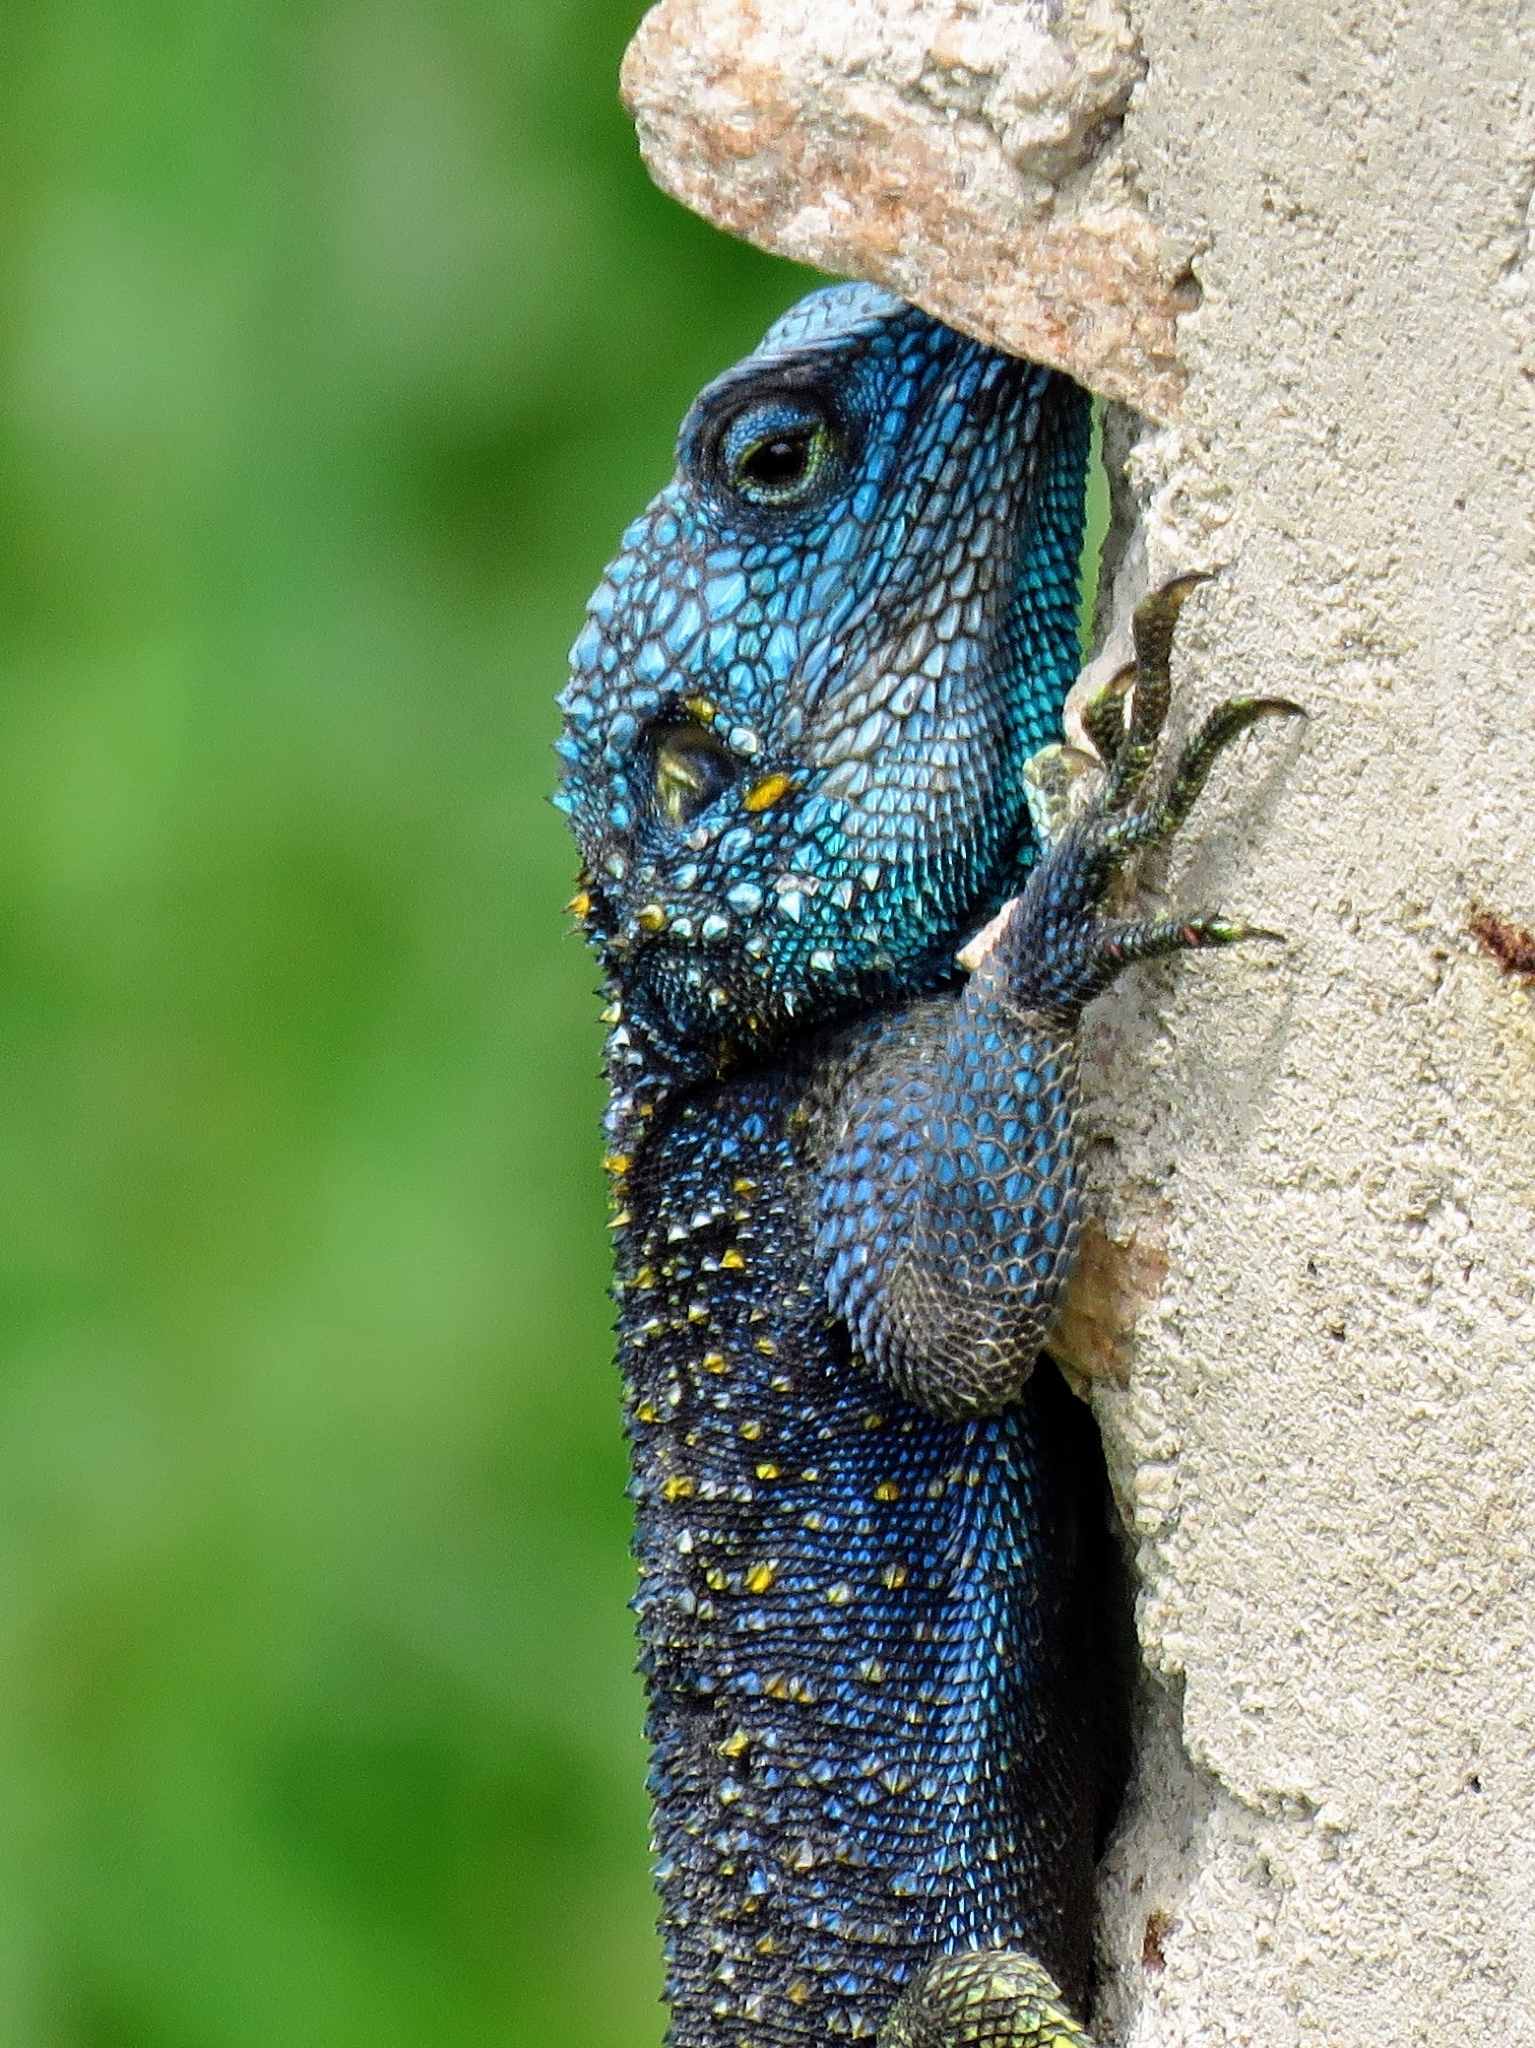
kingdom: Animalia
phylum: Chordata
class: Squamata
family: Agamidae
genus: Acanthocercus
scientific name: Acanthocercus ugandaensis
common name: Uganda blue-headed tree agama
